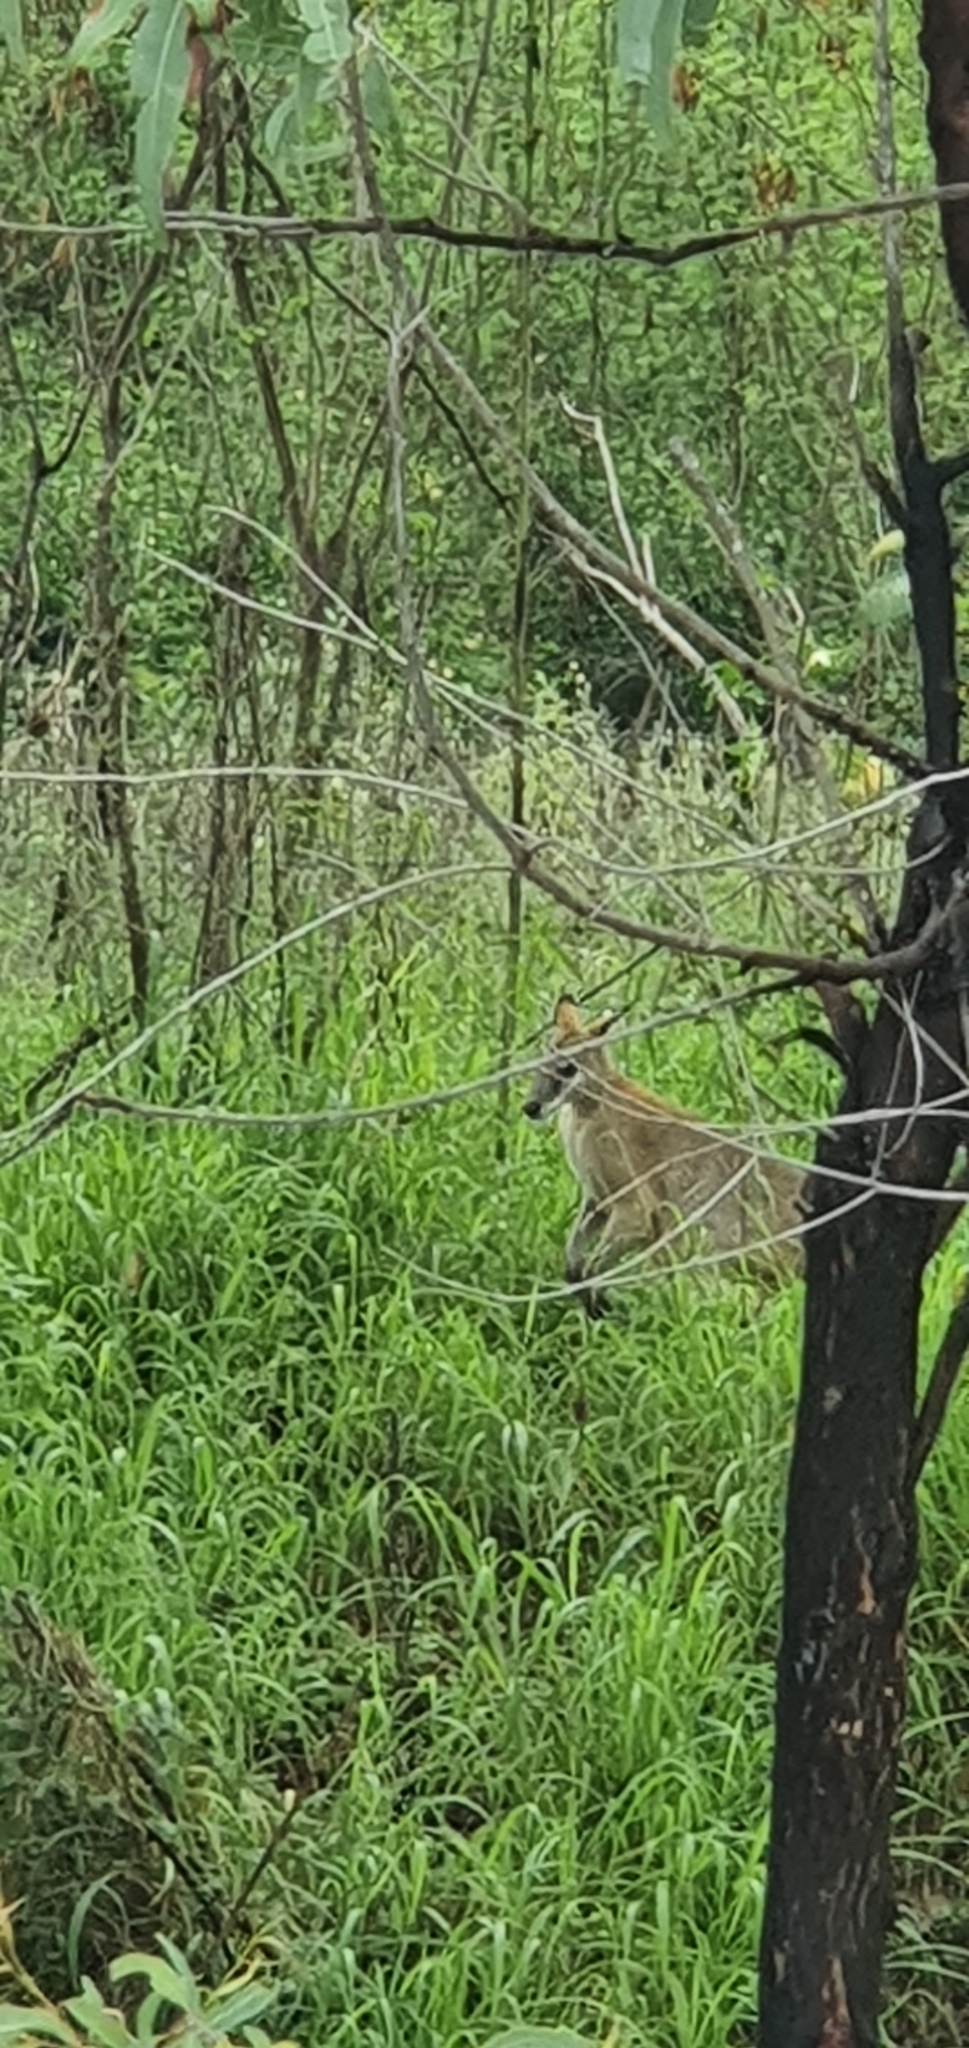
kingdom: Animalia
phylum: Chordata
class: Mammalia
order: Diprotodontia
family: Macropodidae
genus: Macropus
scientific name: Macropus agilis
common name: Agile wallaby
